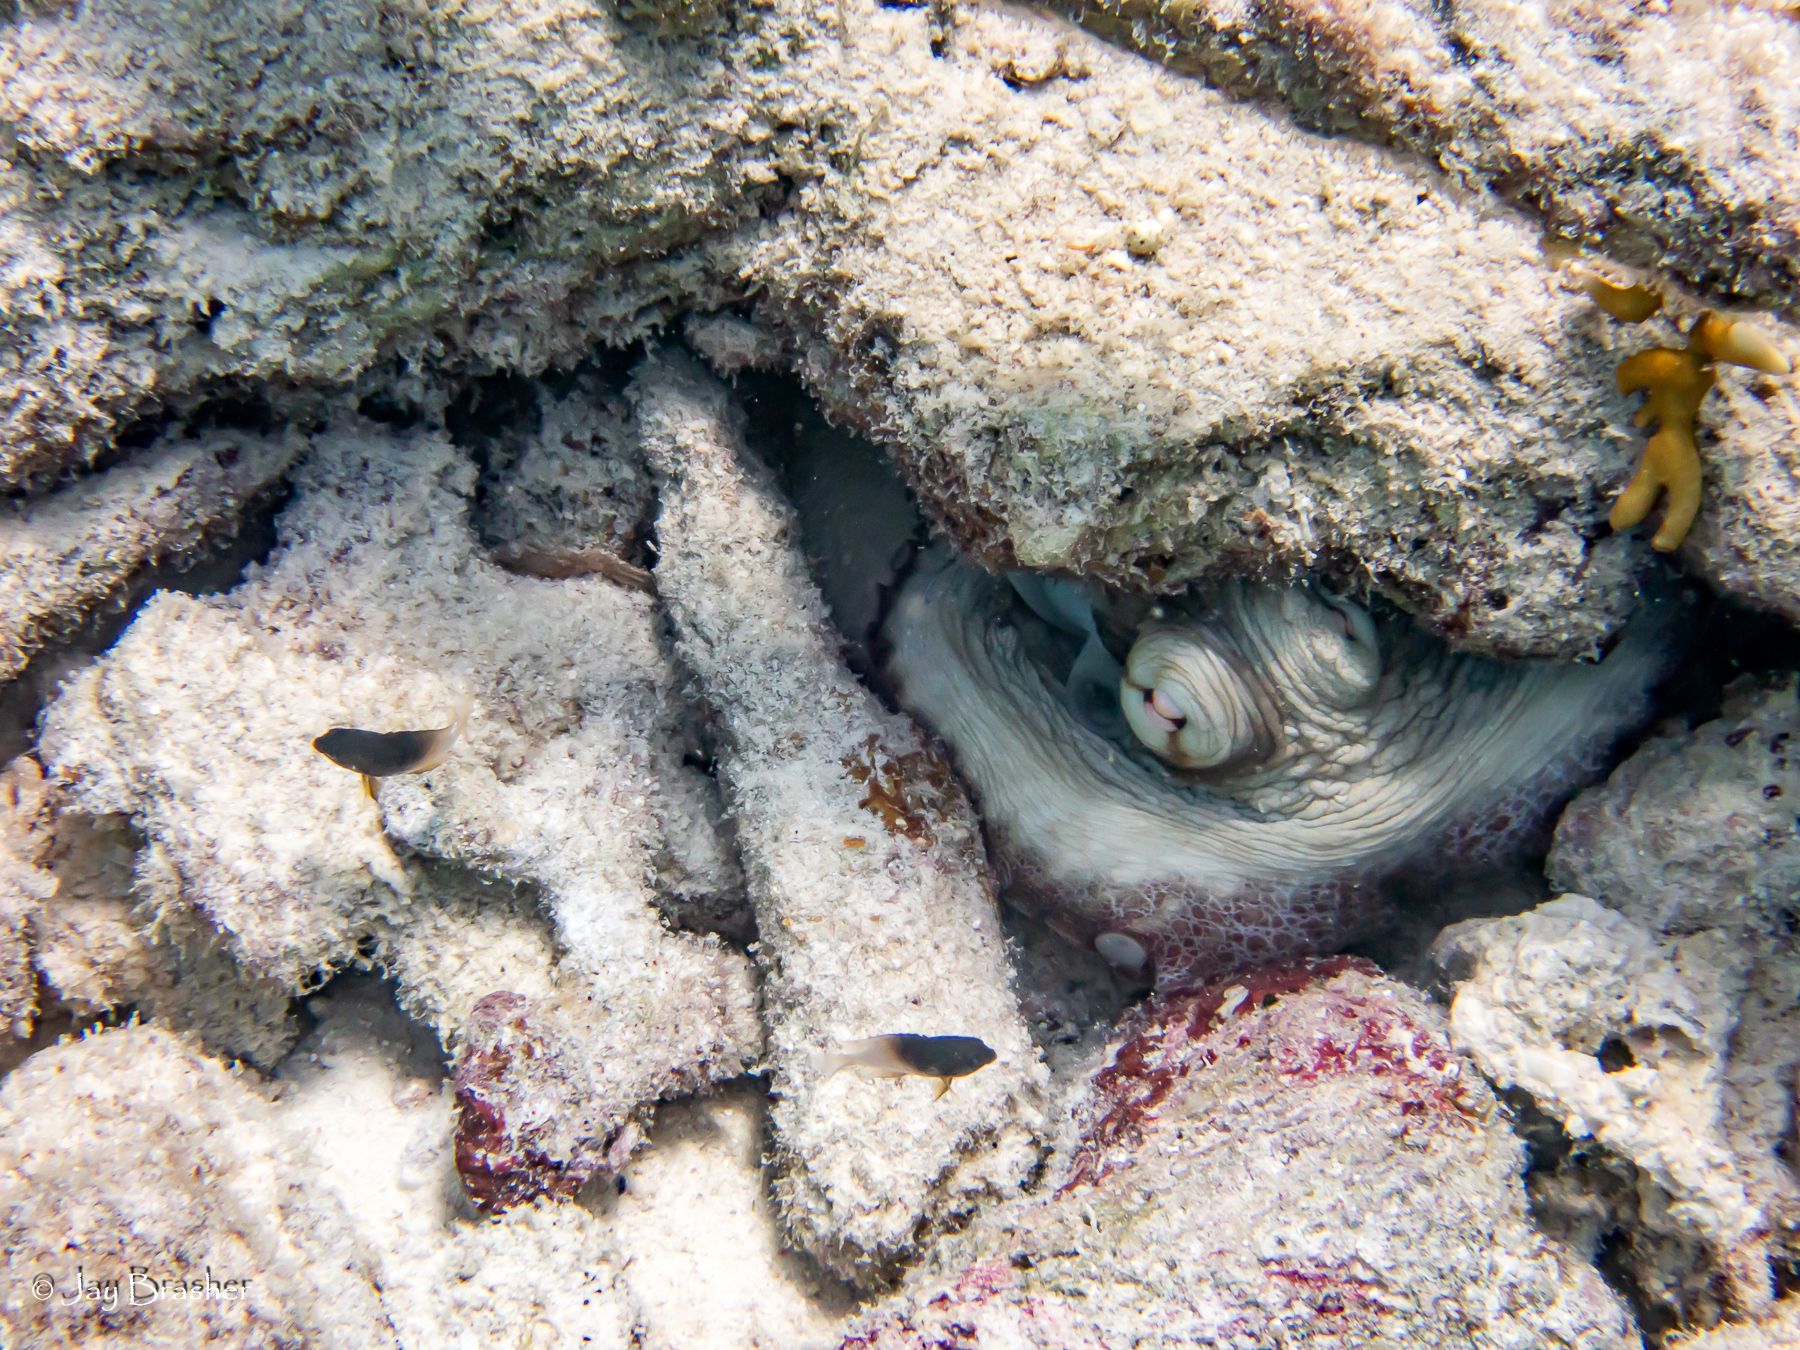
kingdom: Animalia
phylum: Mollusca
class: Cephalopoda
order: Octopoda
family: Octopodidae
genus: Octopus
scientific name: Octopus insularis
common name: Brazil reef octopus
